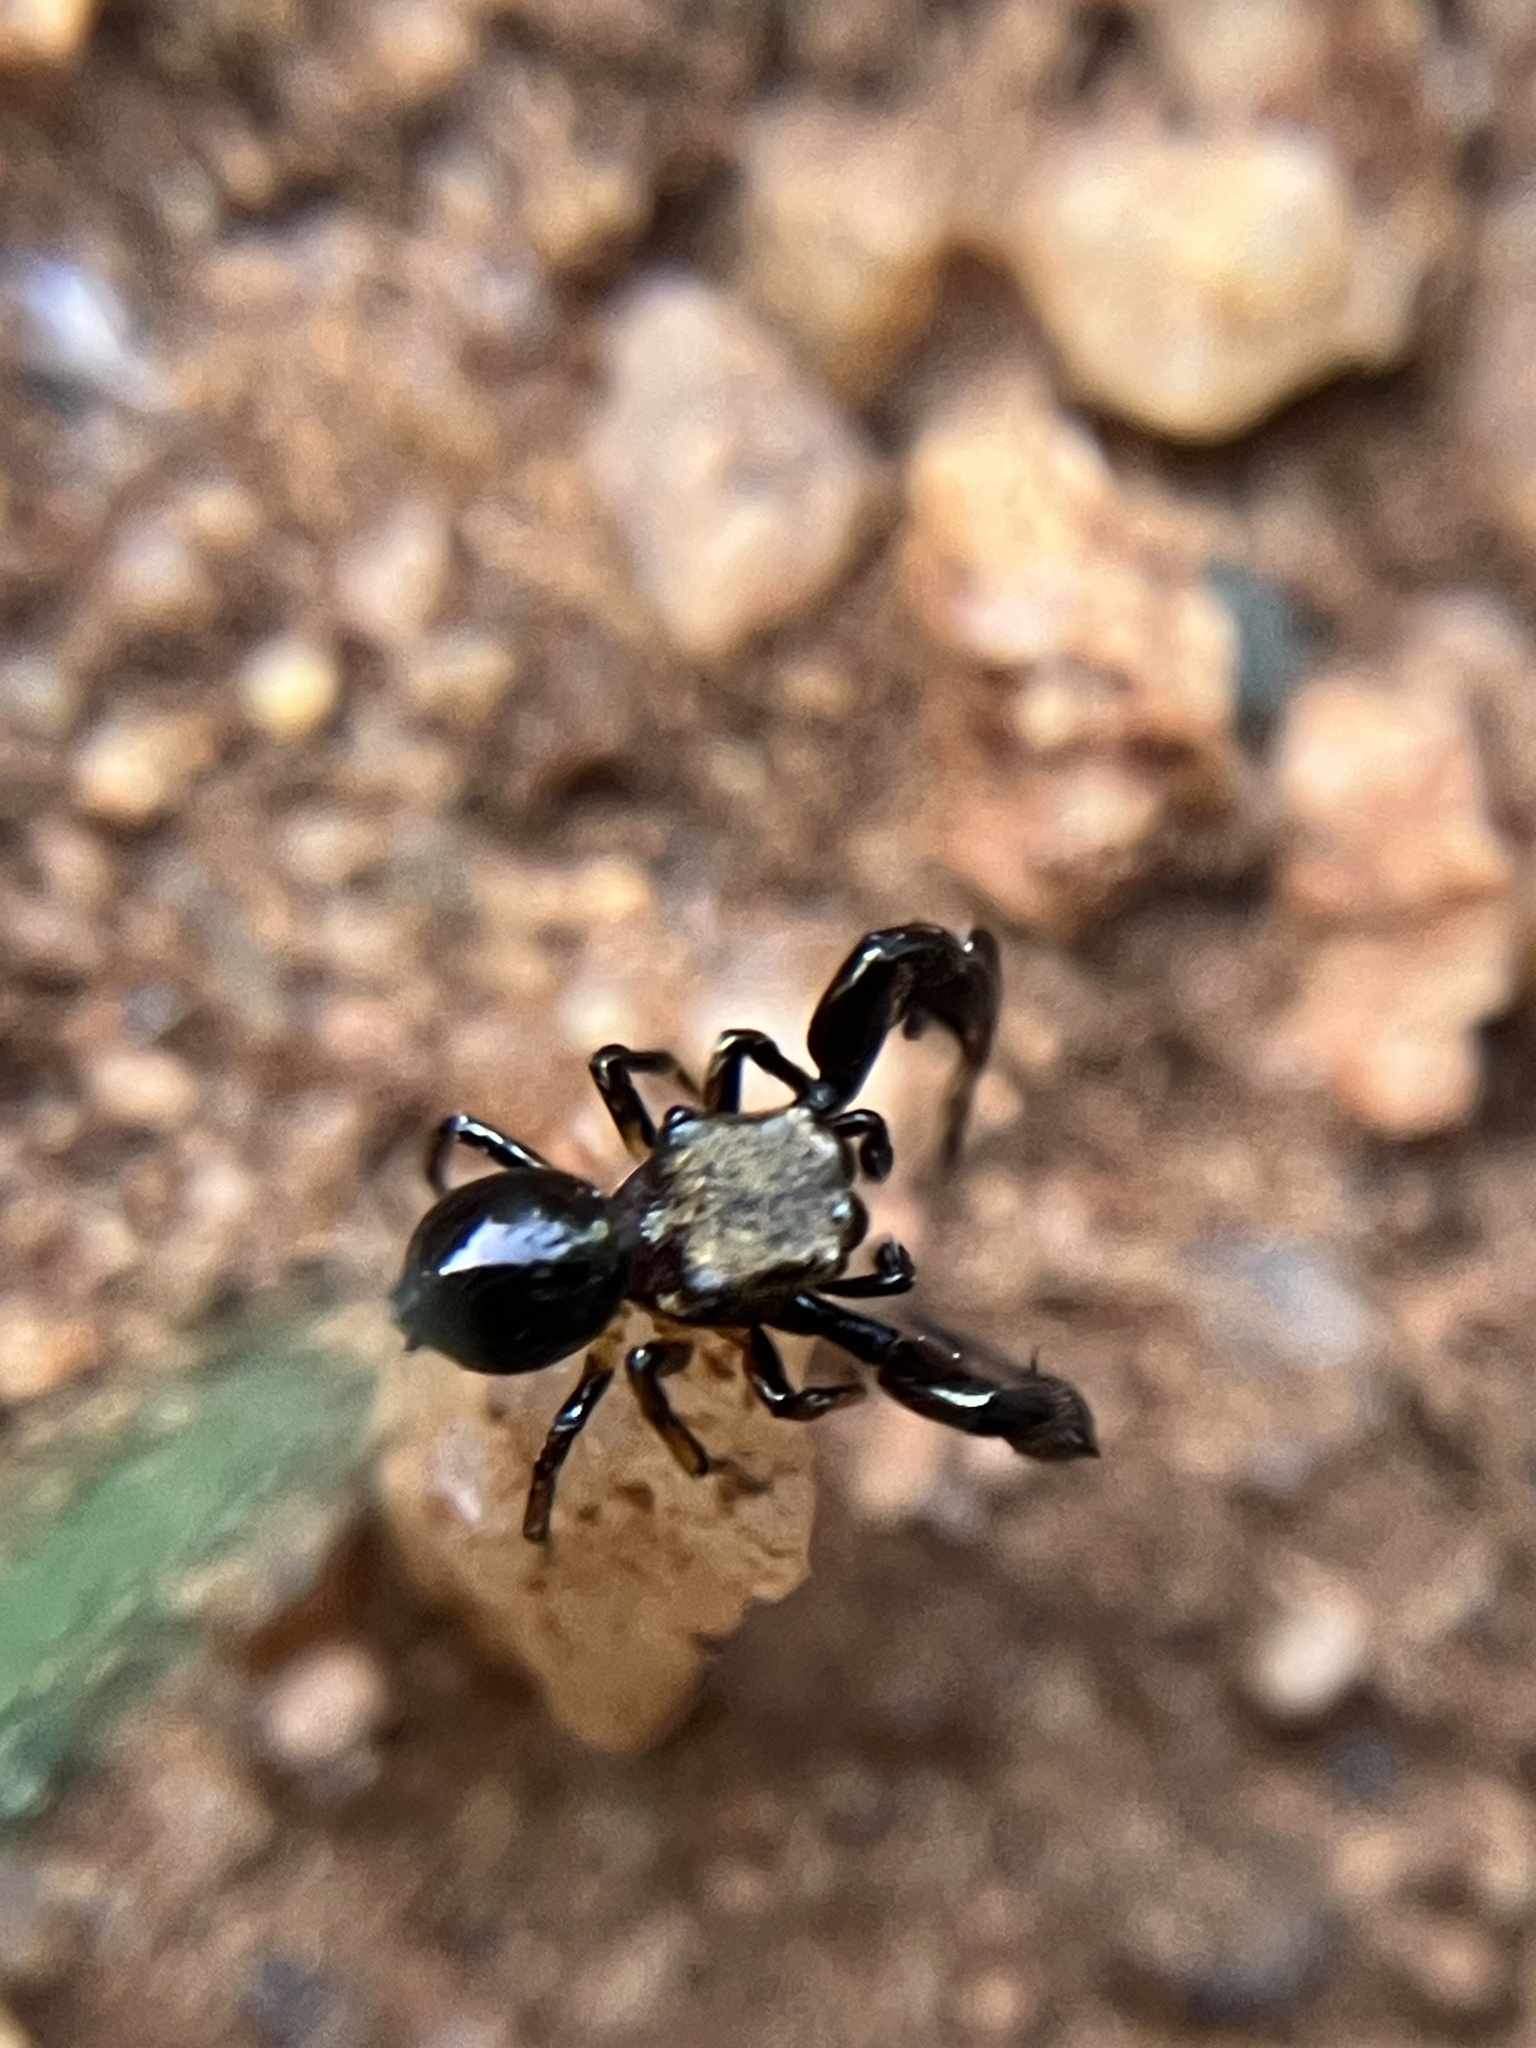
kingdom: Animalia
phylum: Arthropoda
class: Arachnida
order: Araneae
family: Salticidae
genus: Harmochirus
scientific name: Harmochirus brachiatus
